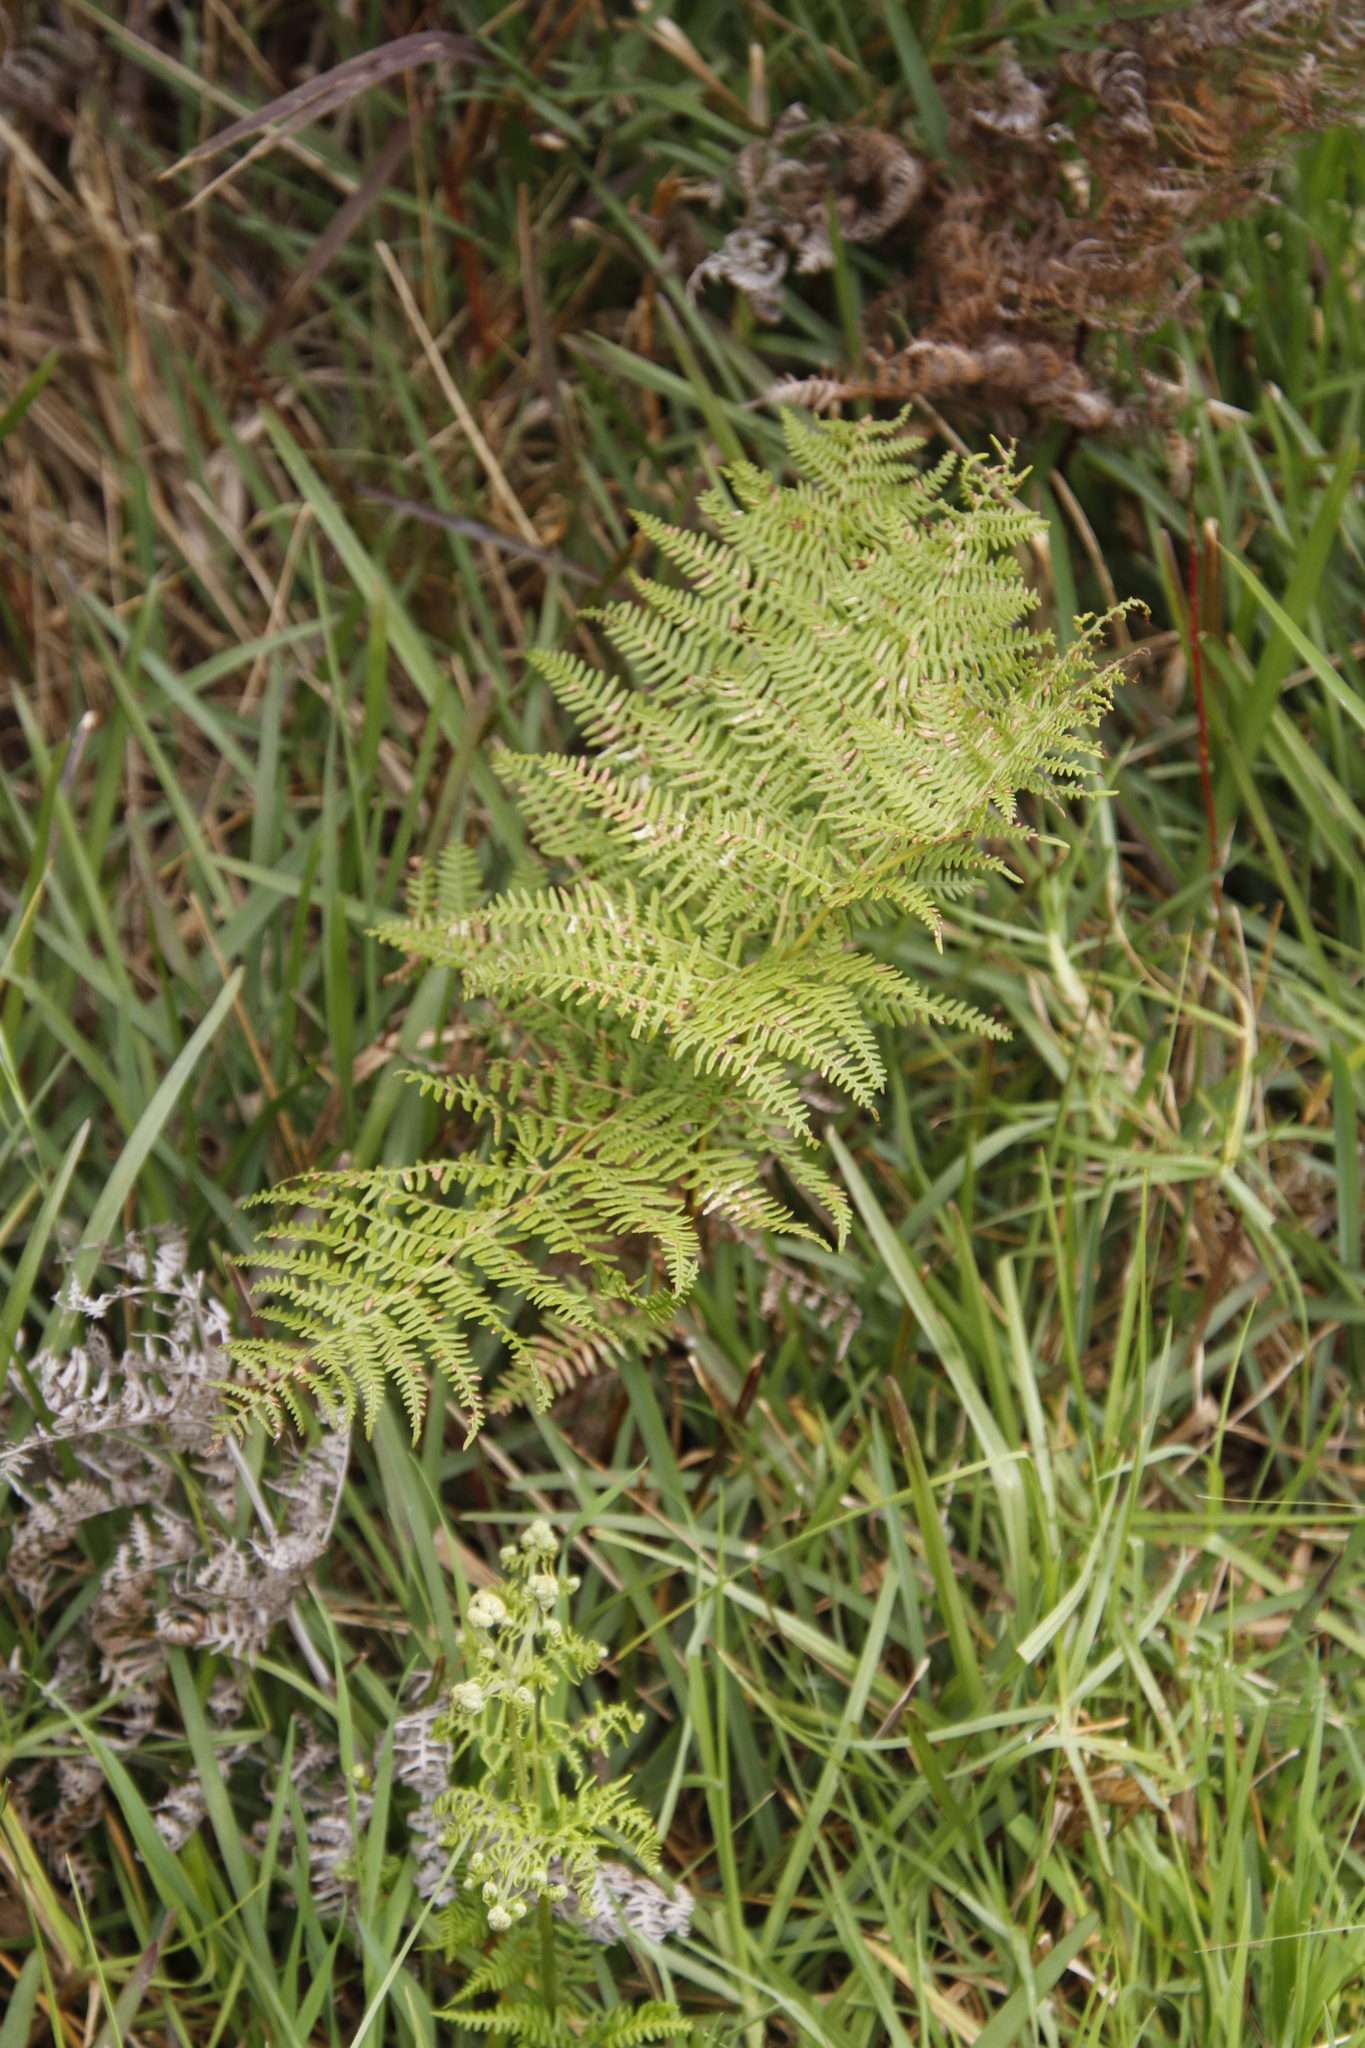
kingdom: Plantae
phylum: Tracheophyta
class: Polypodiopsida
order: Polypodiales
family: Dennstaedtiaceae
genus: Pteridium
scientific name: Pteridium aquilinum
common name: Bracken
